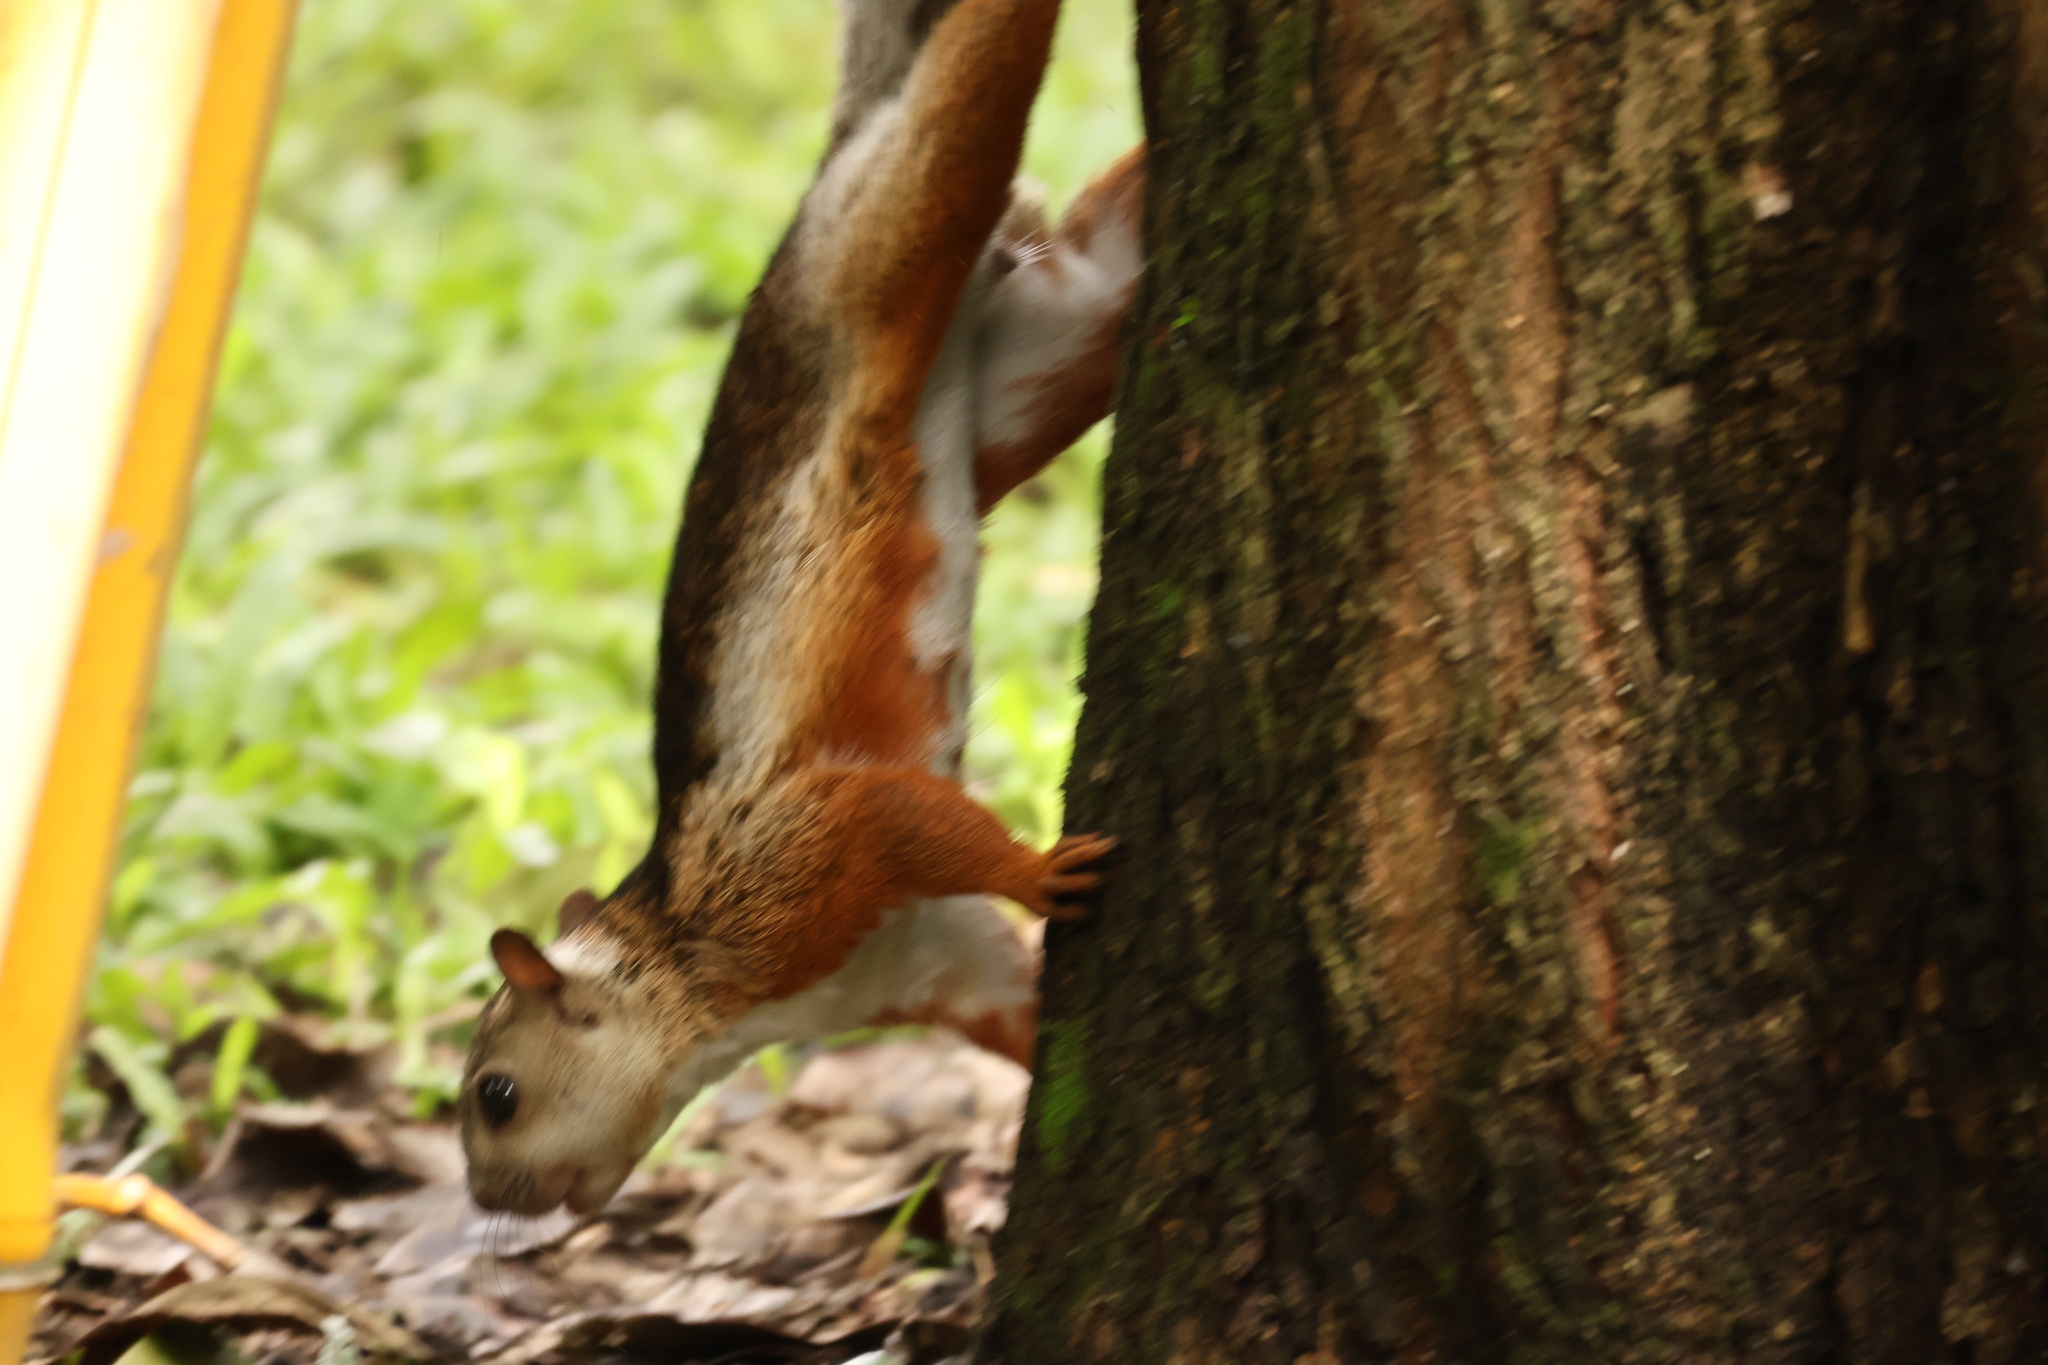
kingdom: Animalia
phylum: Chordata
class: Mammalia
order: Rodentia
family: Sciuridae
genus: Sciurus
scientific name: Sciurus variegatoides
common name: Variegated squirrel
